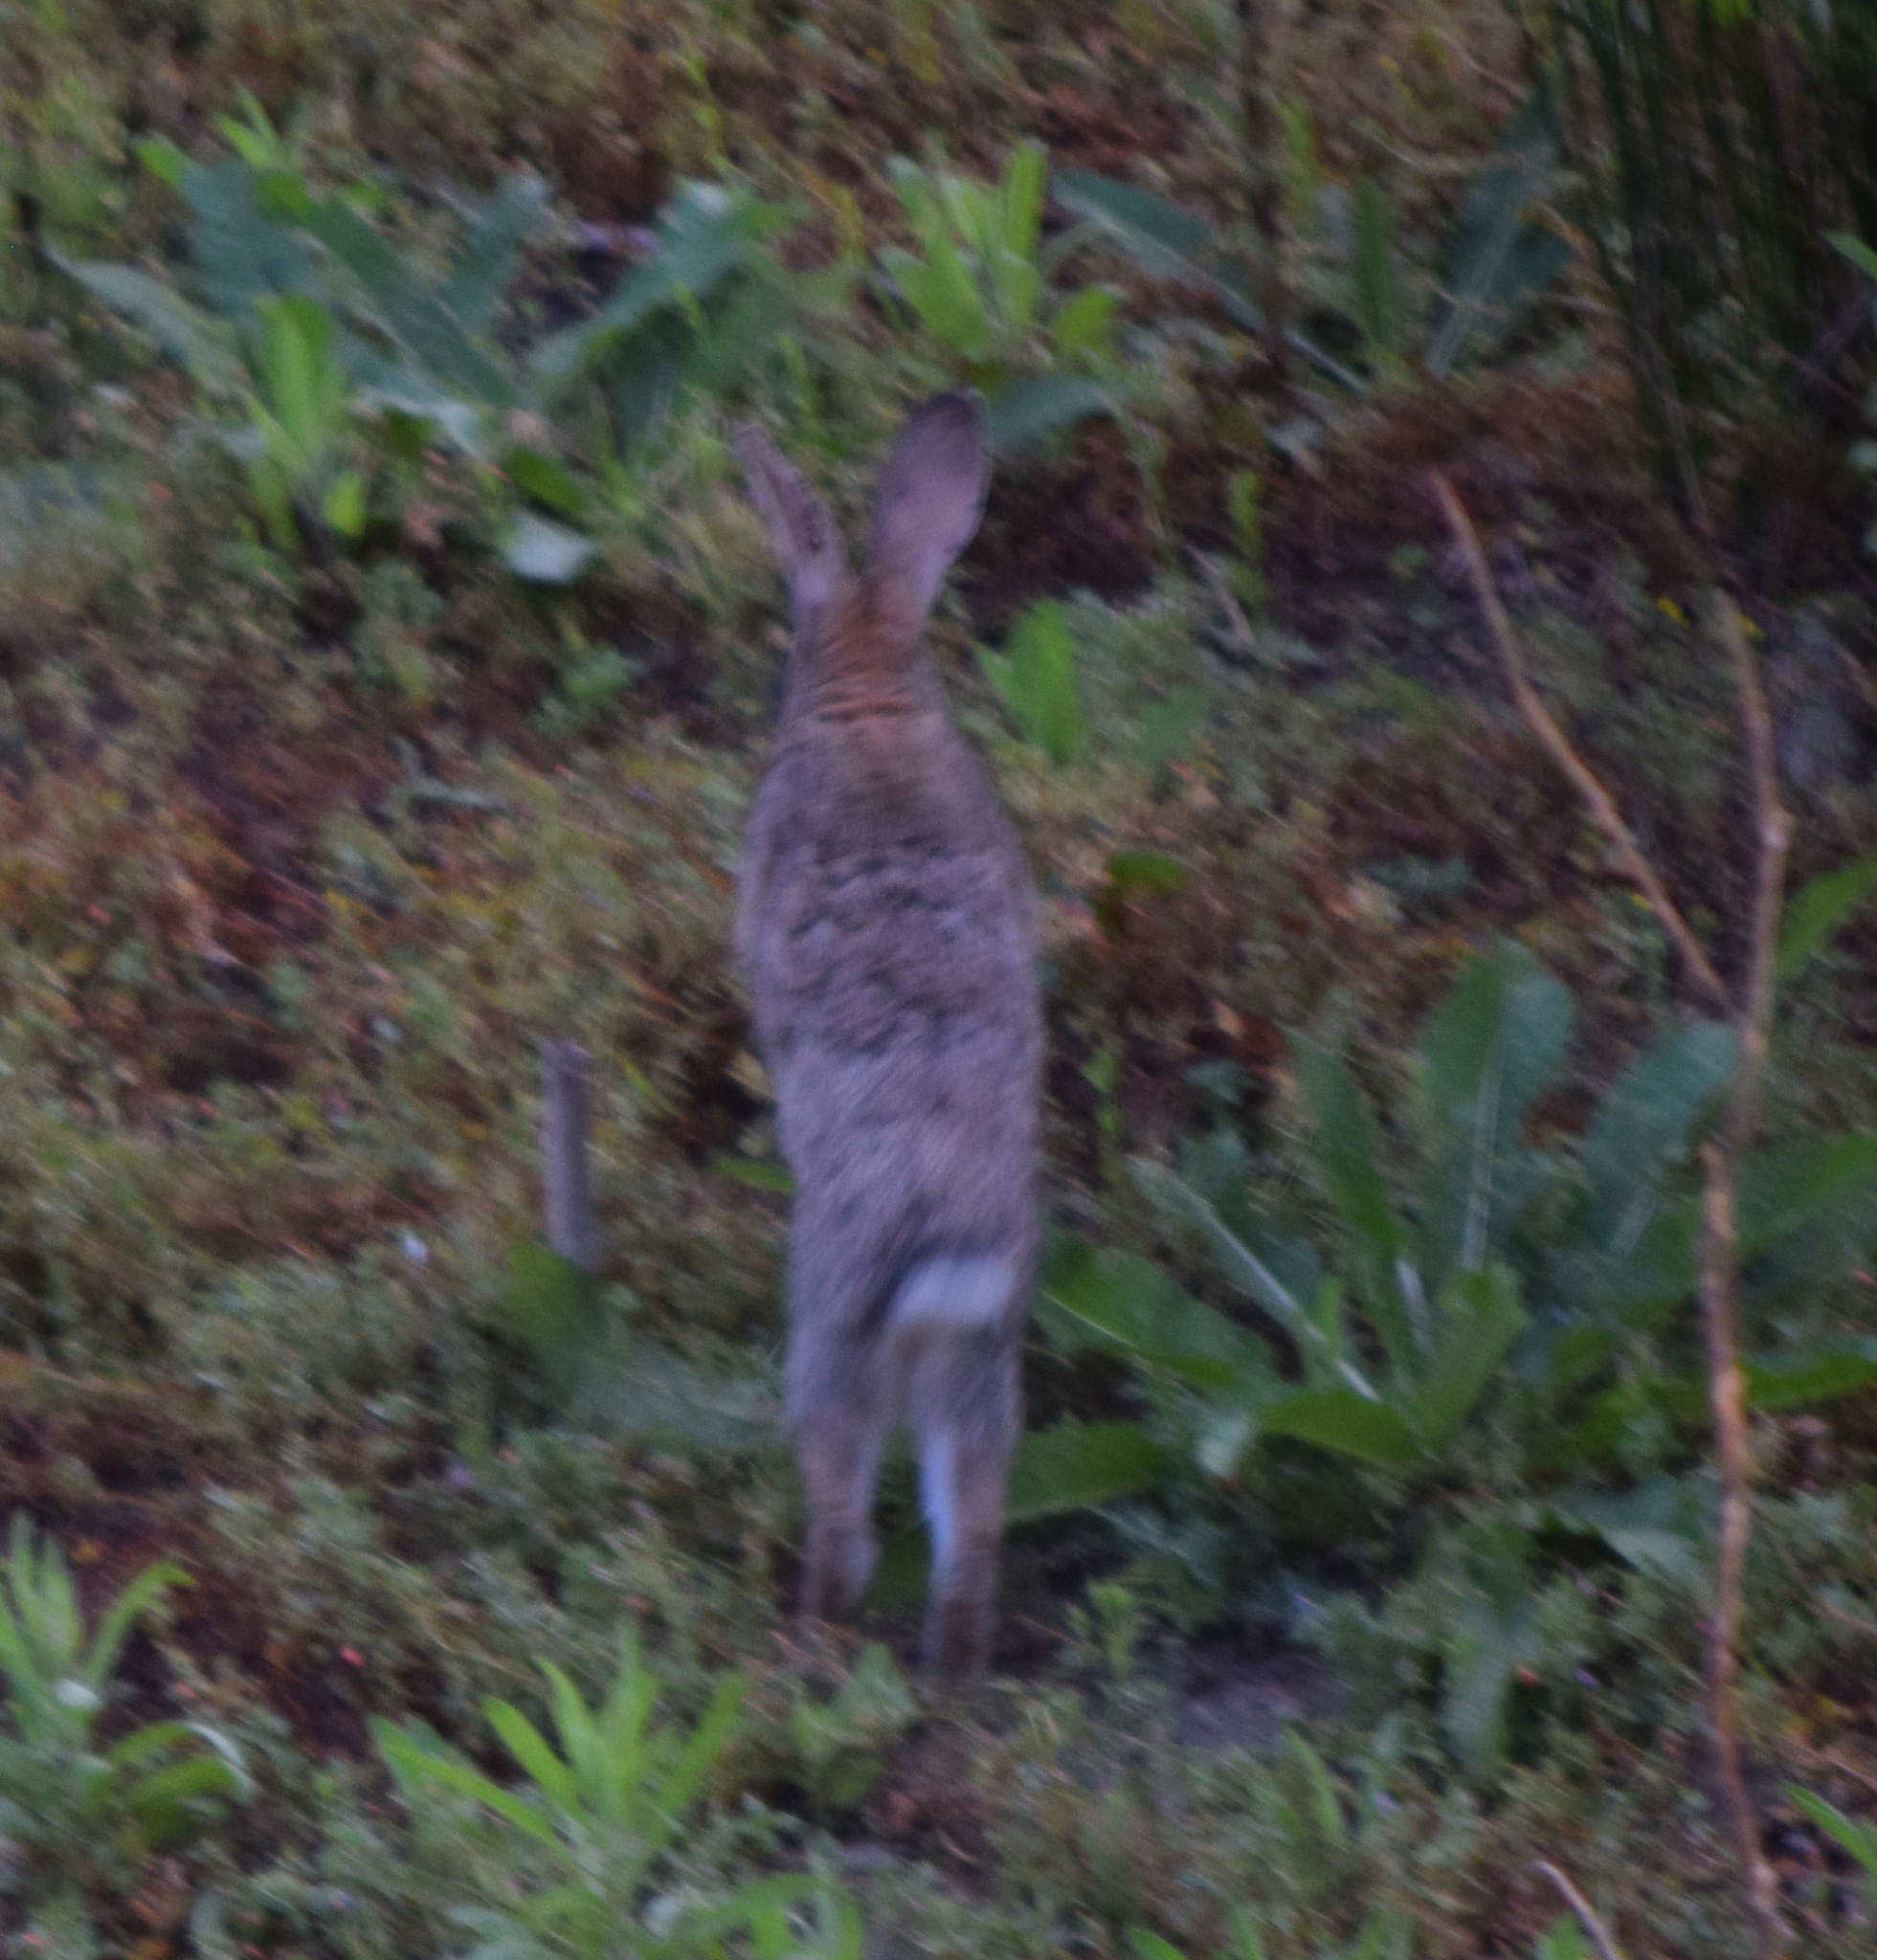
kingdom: Animalia
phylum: Chordata
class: Mammalia
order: Lagomorpha
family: Leporidae
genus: Oryctolagus
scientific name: Oryctolagus cuniculus
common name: European rabbit
